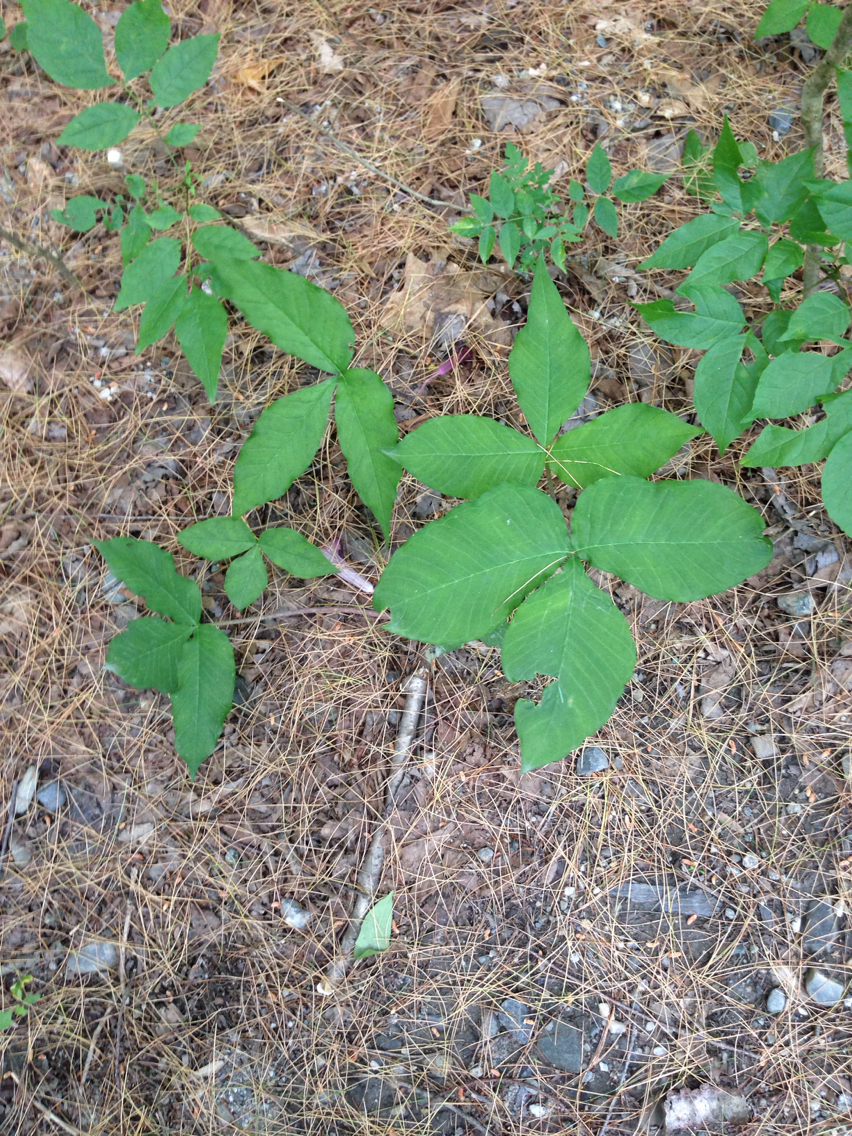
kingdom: Plantae
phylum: Tracheophyta
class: Liliopsida
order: Alismatales
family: Araceae
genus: Arisaema
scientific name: Arisaema triphyllum
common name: Jack-in-the-pulpit
